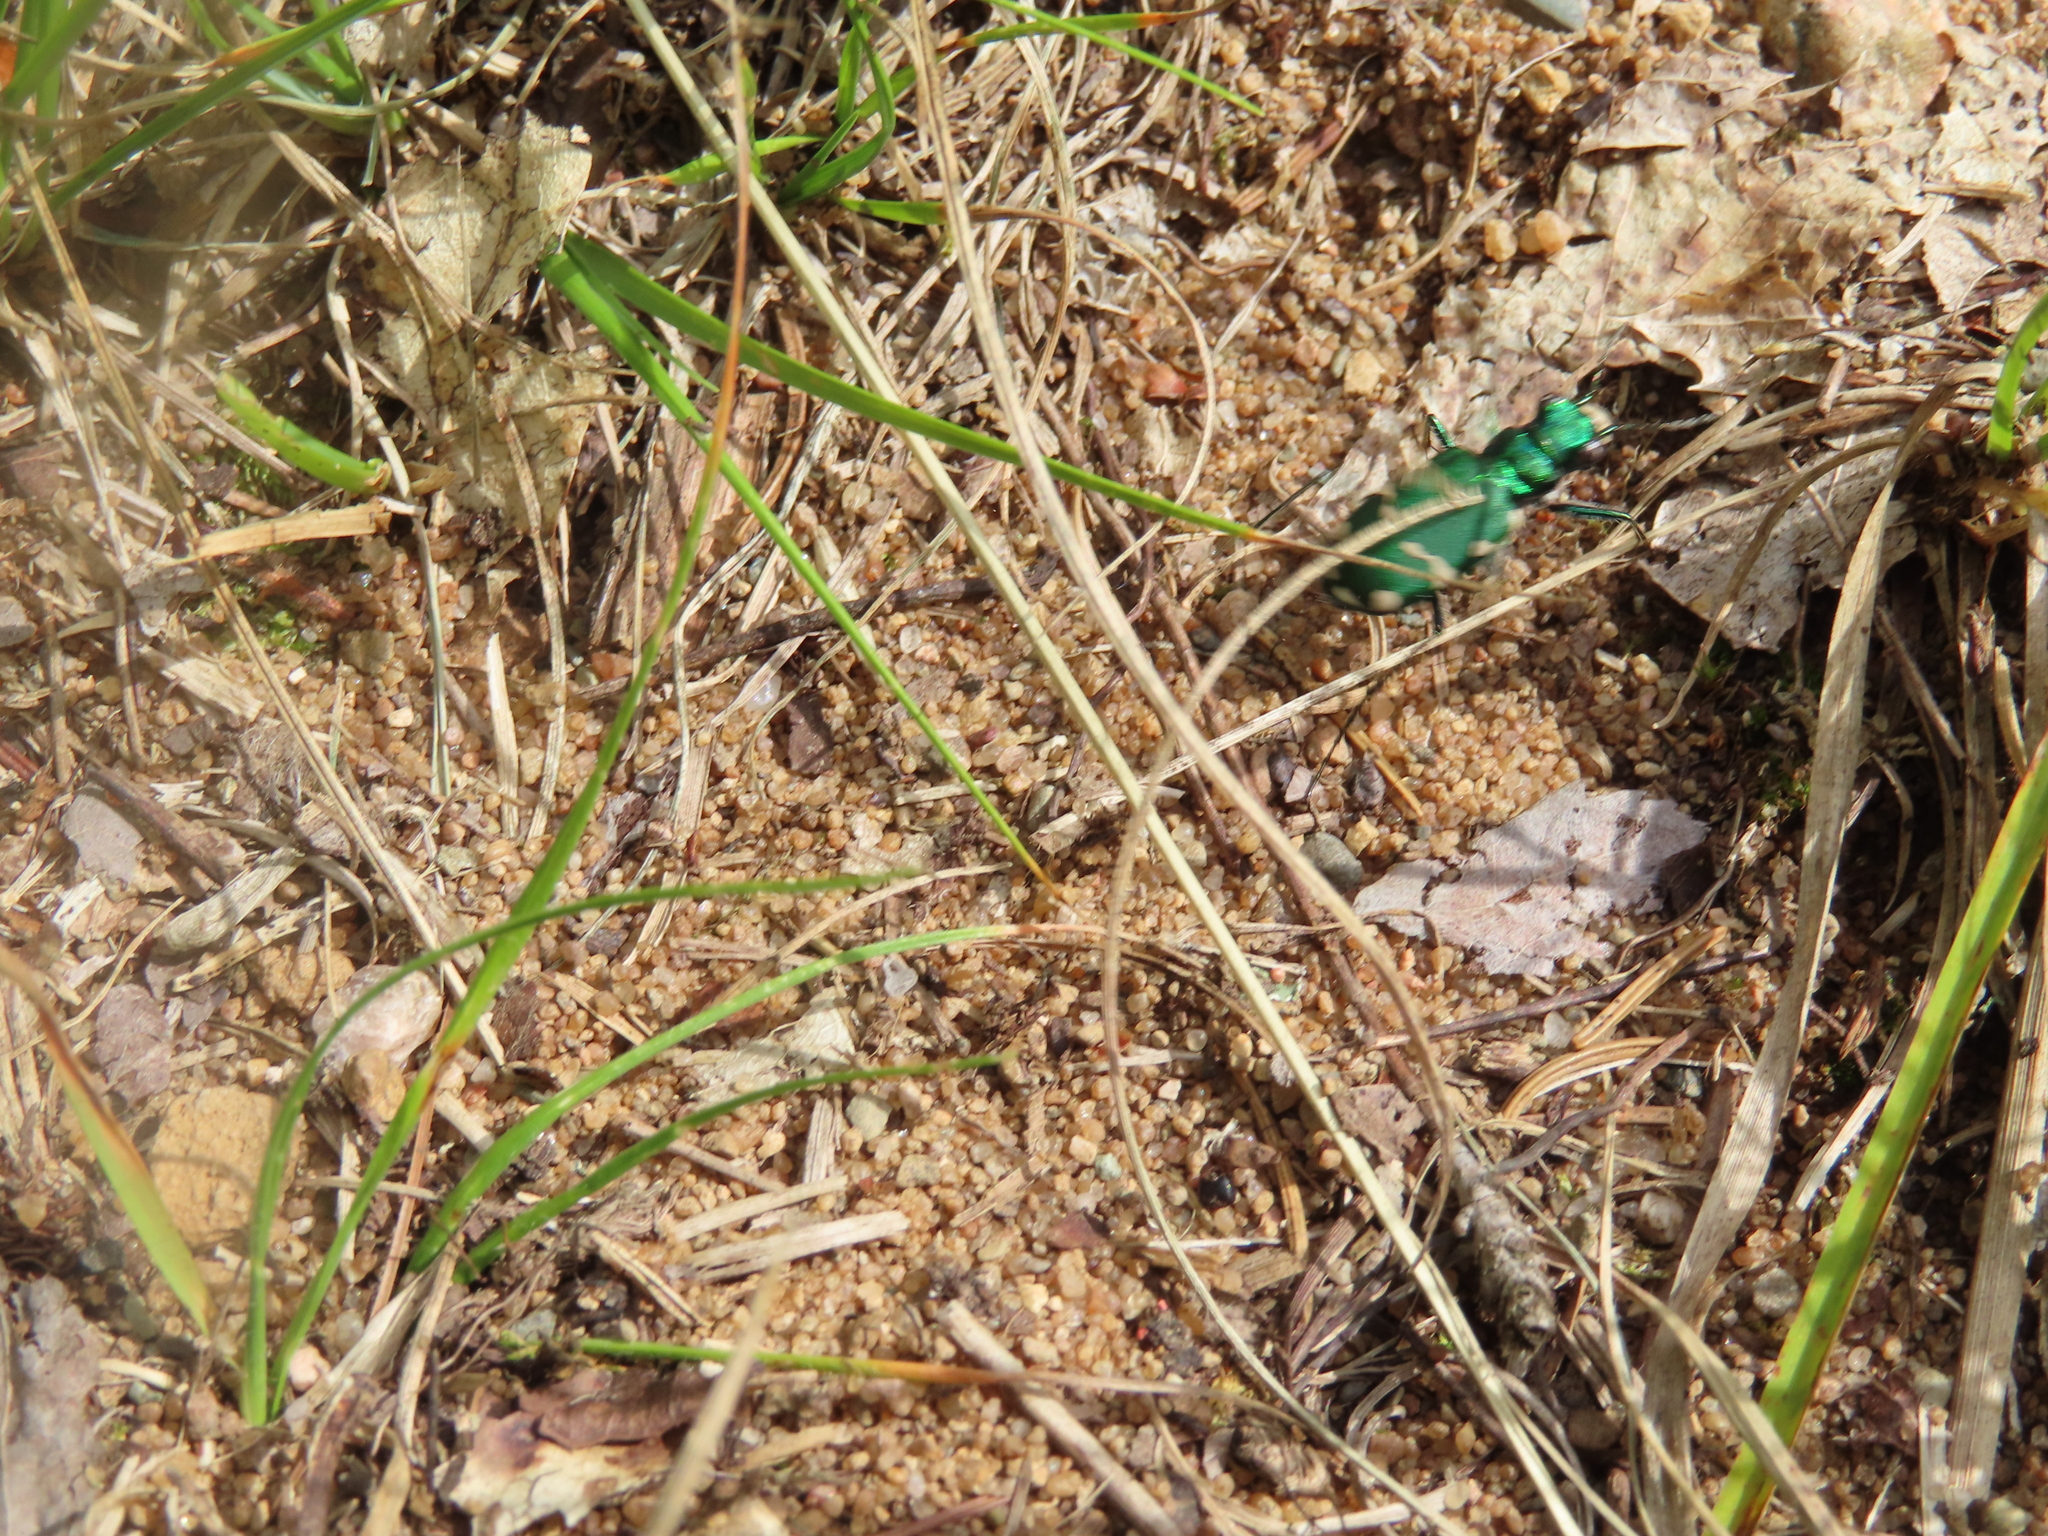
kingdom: Animalia
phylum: Arthropoda
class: Insecta
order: Coleoptera
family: Carabidae
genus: Cicindela
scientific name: Cicindela patruela
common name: Northern barrens tiger beetle
